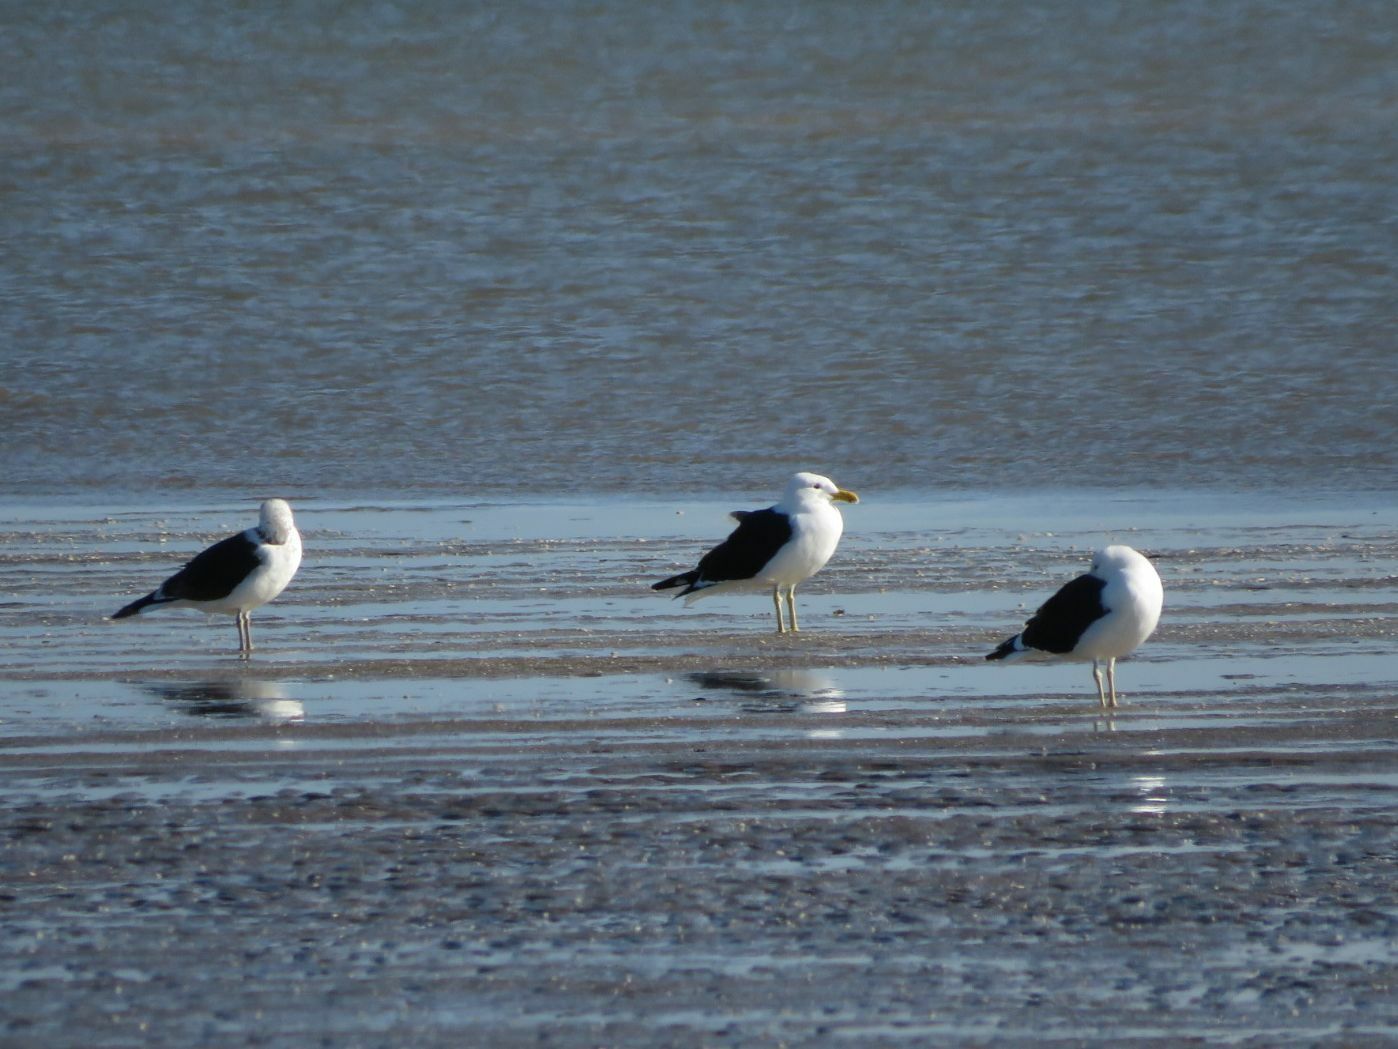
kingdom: Animalia
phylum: Chordata
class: Aves
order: Charadriiformes
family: Laridae
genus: Larus
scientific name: Larus dominicanus
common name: Kelp gull
